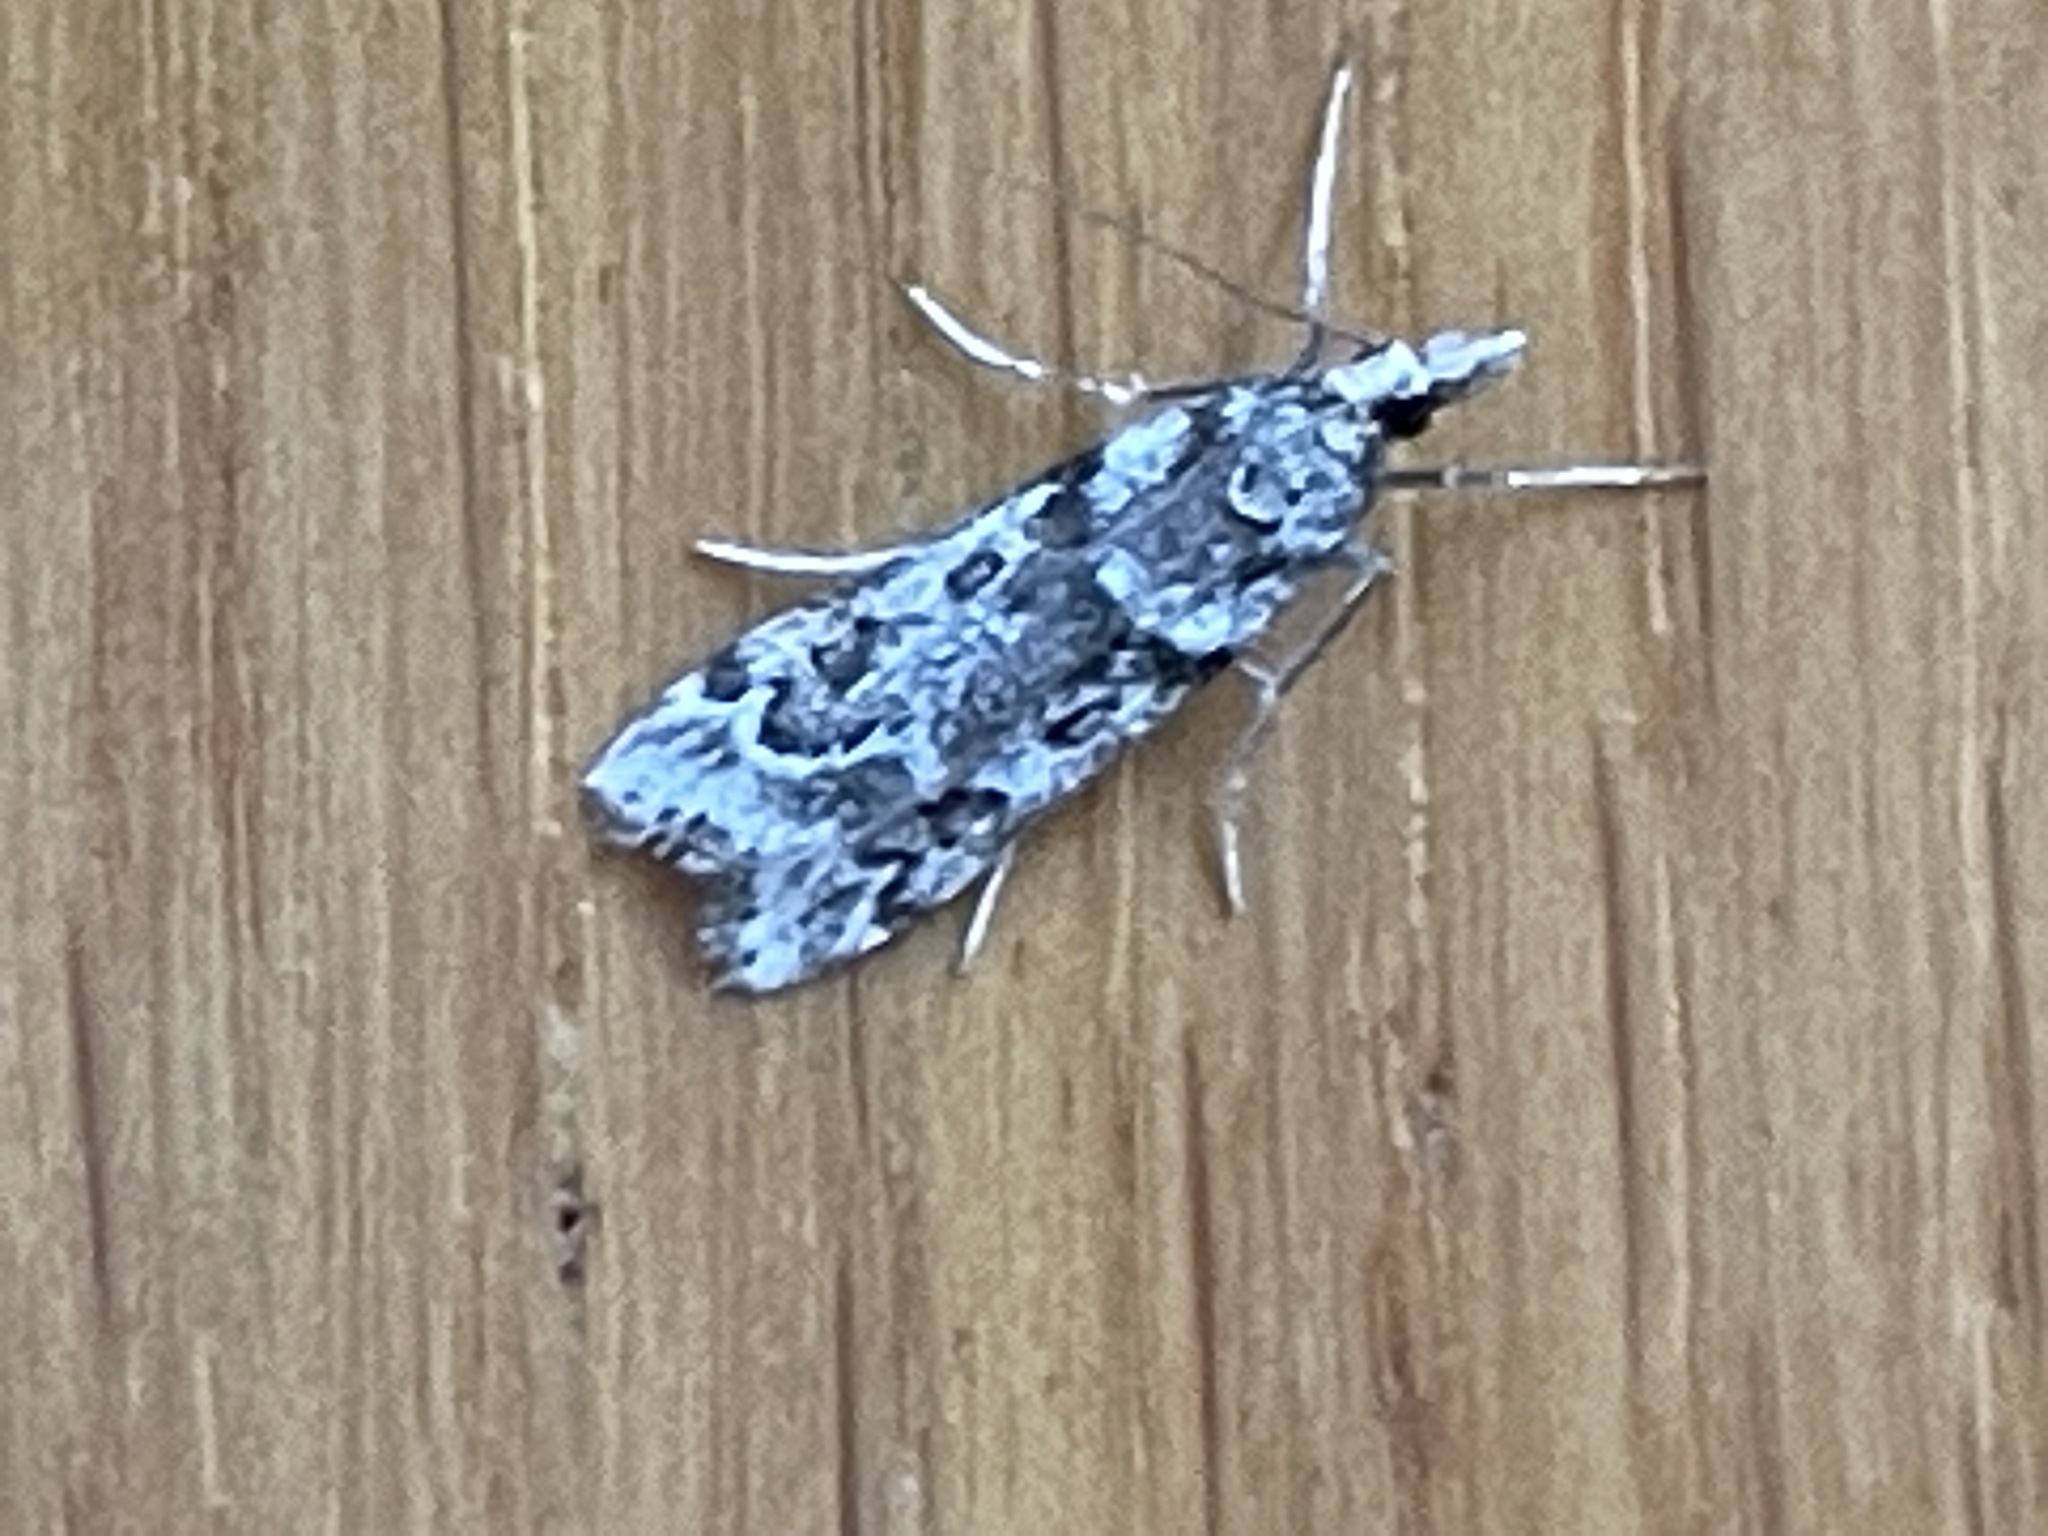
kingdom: Animalia
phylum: Arthropoda
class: Insecta
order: Lepidoptera
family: Crambidae
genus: Eudonia
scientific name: Eudonia angustea
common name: Narrow-winged grey
